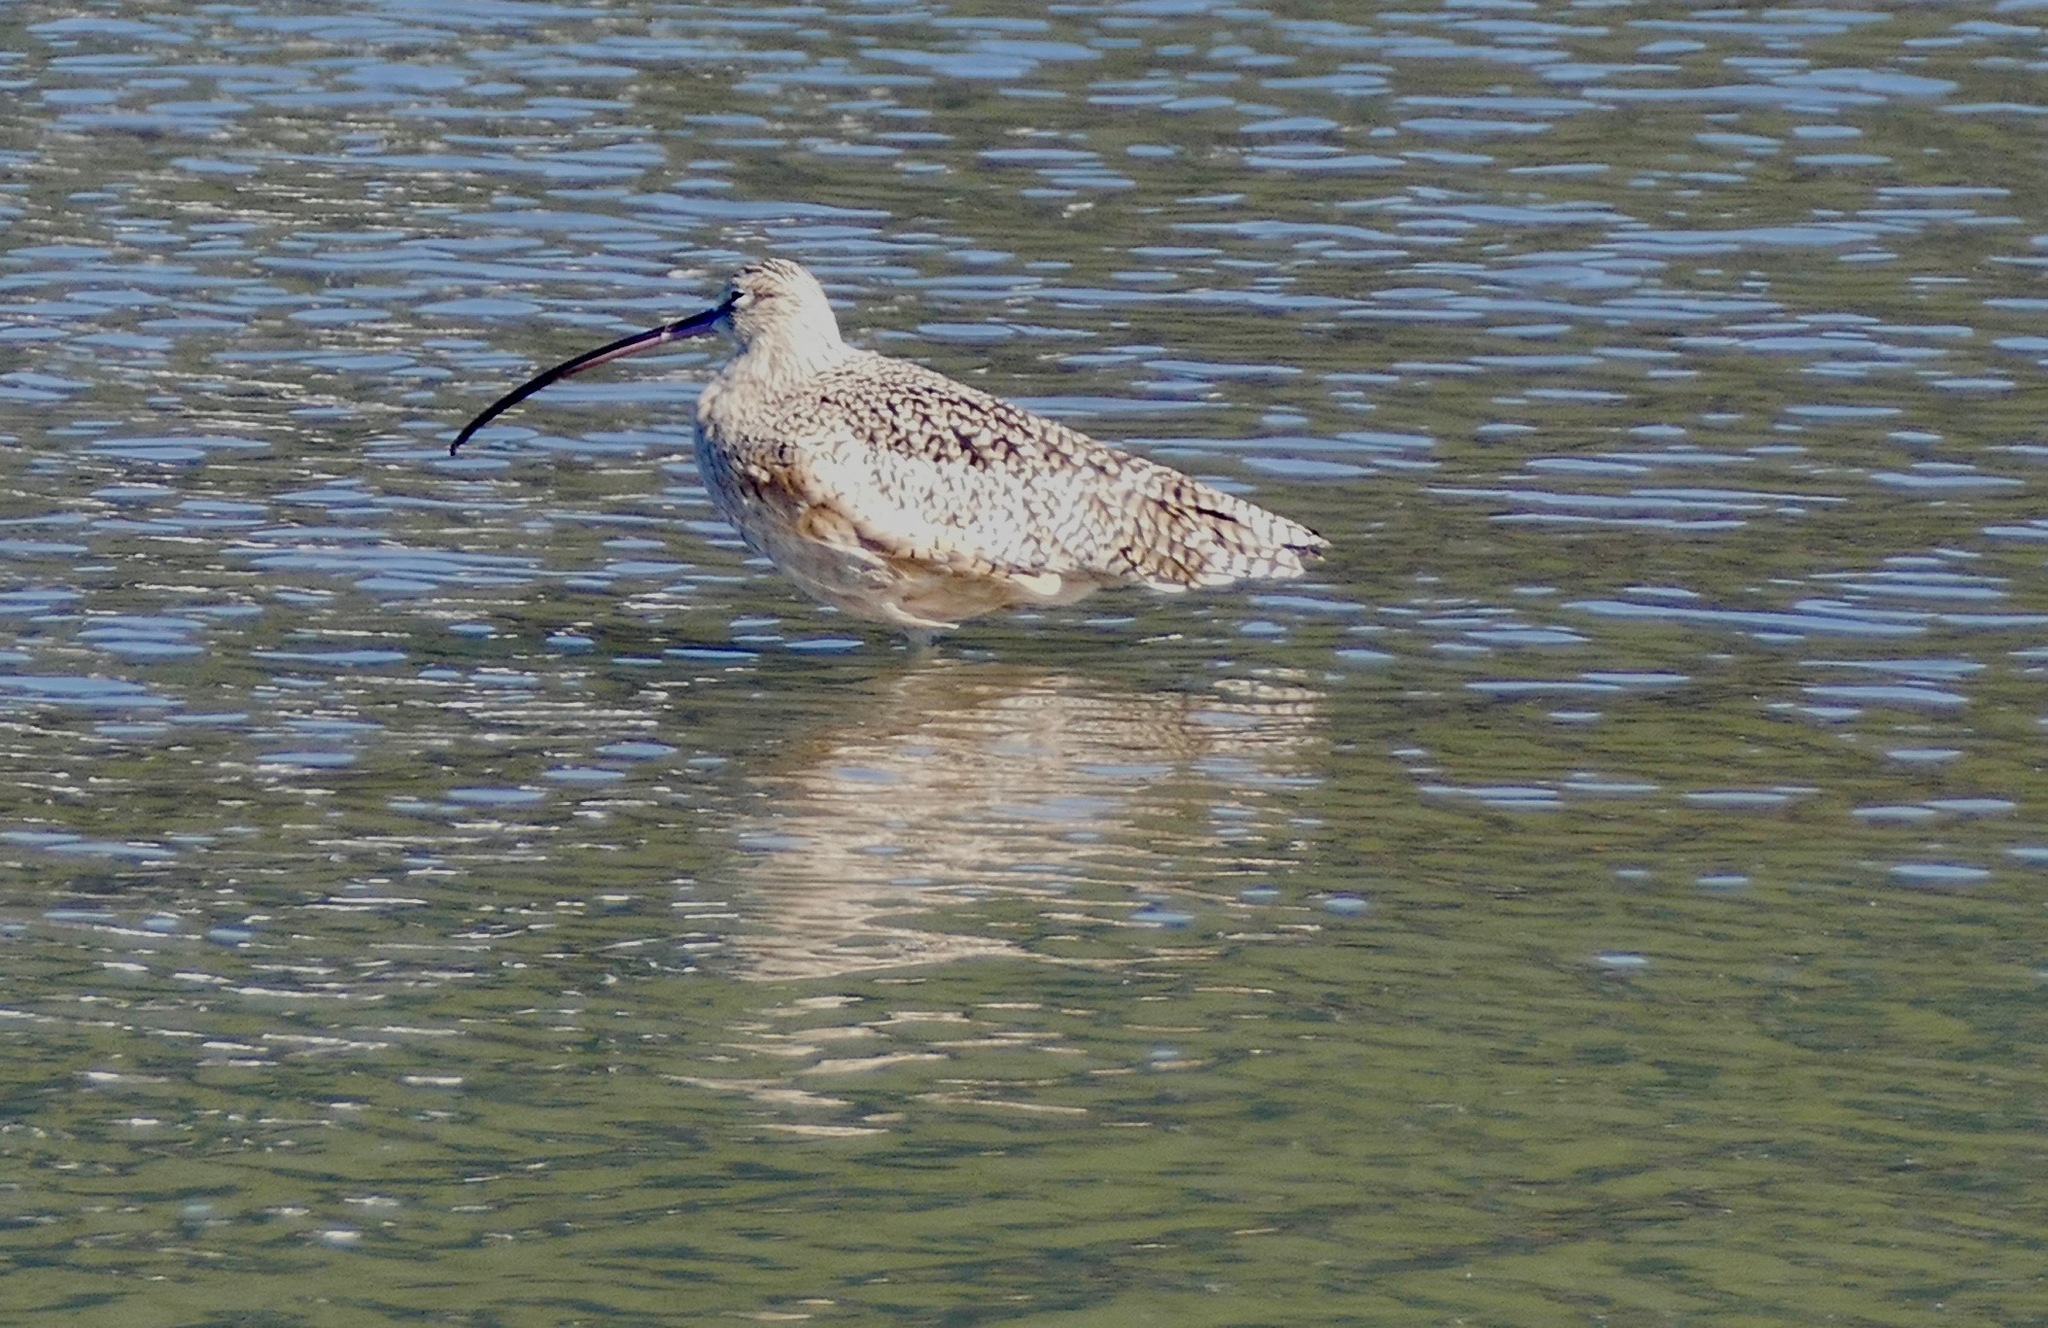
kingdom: Animalia
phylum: Chordata
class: Aves
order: Charadriiformes
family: Scolopacidae
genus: Numenius
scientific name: Numenius americanus
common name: Long-billed curlew
